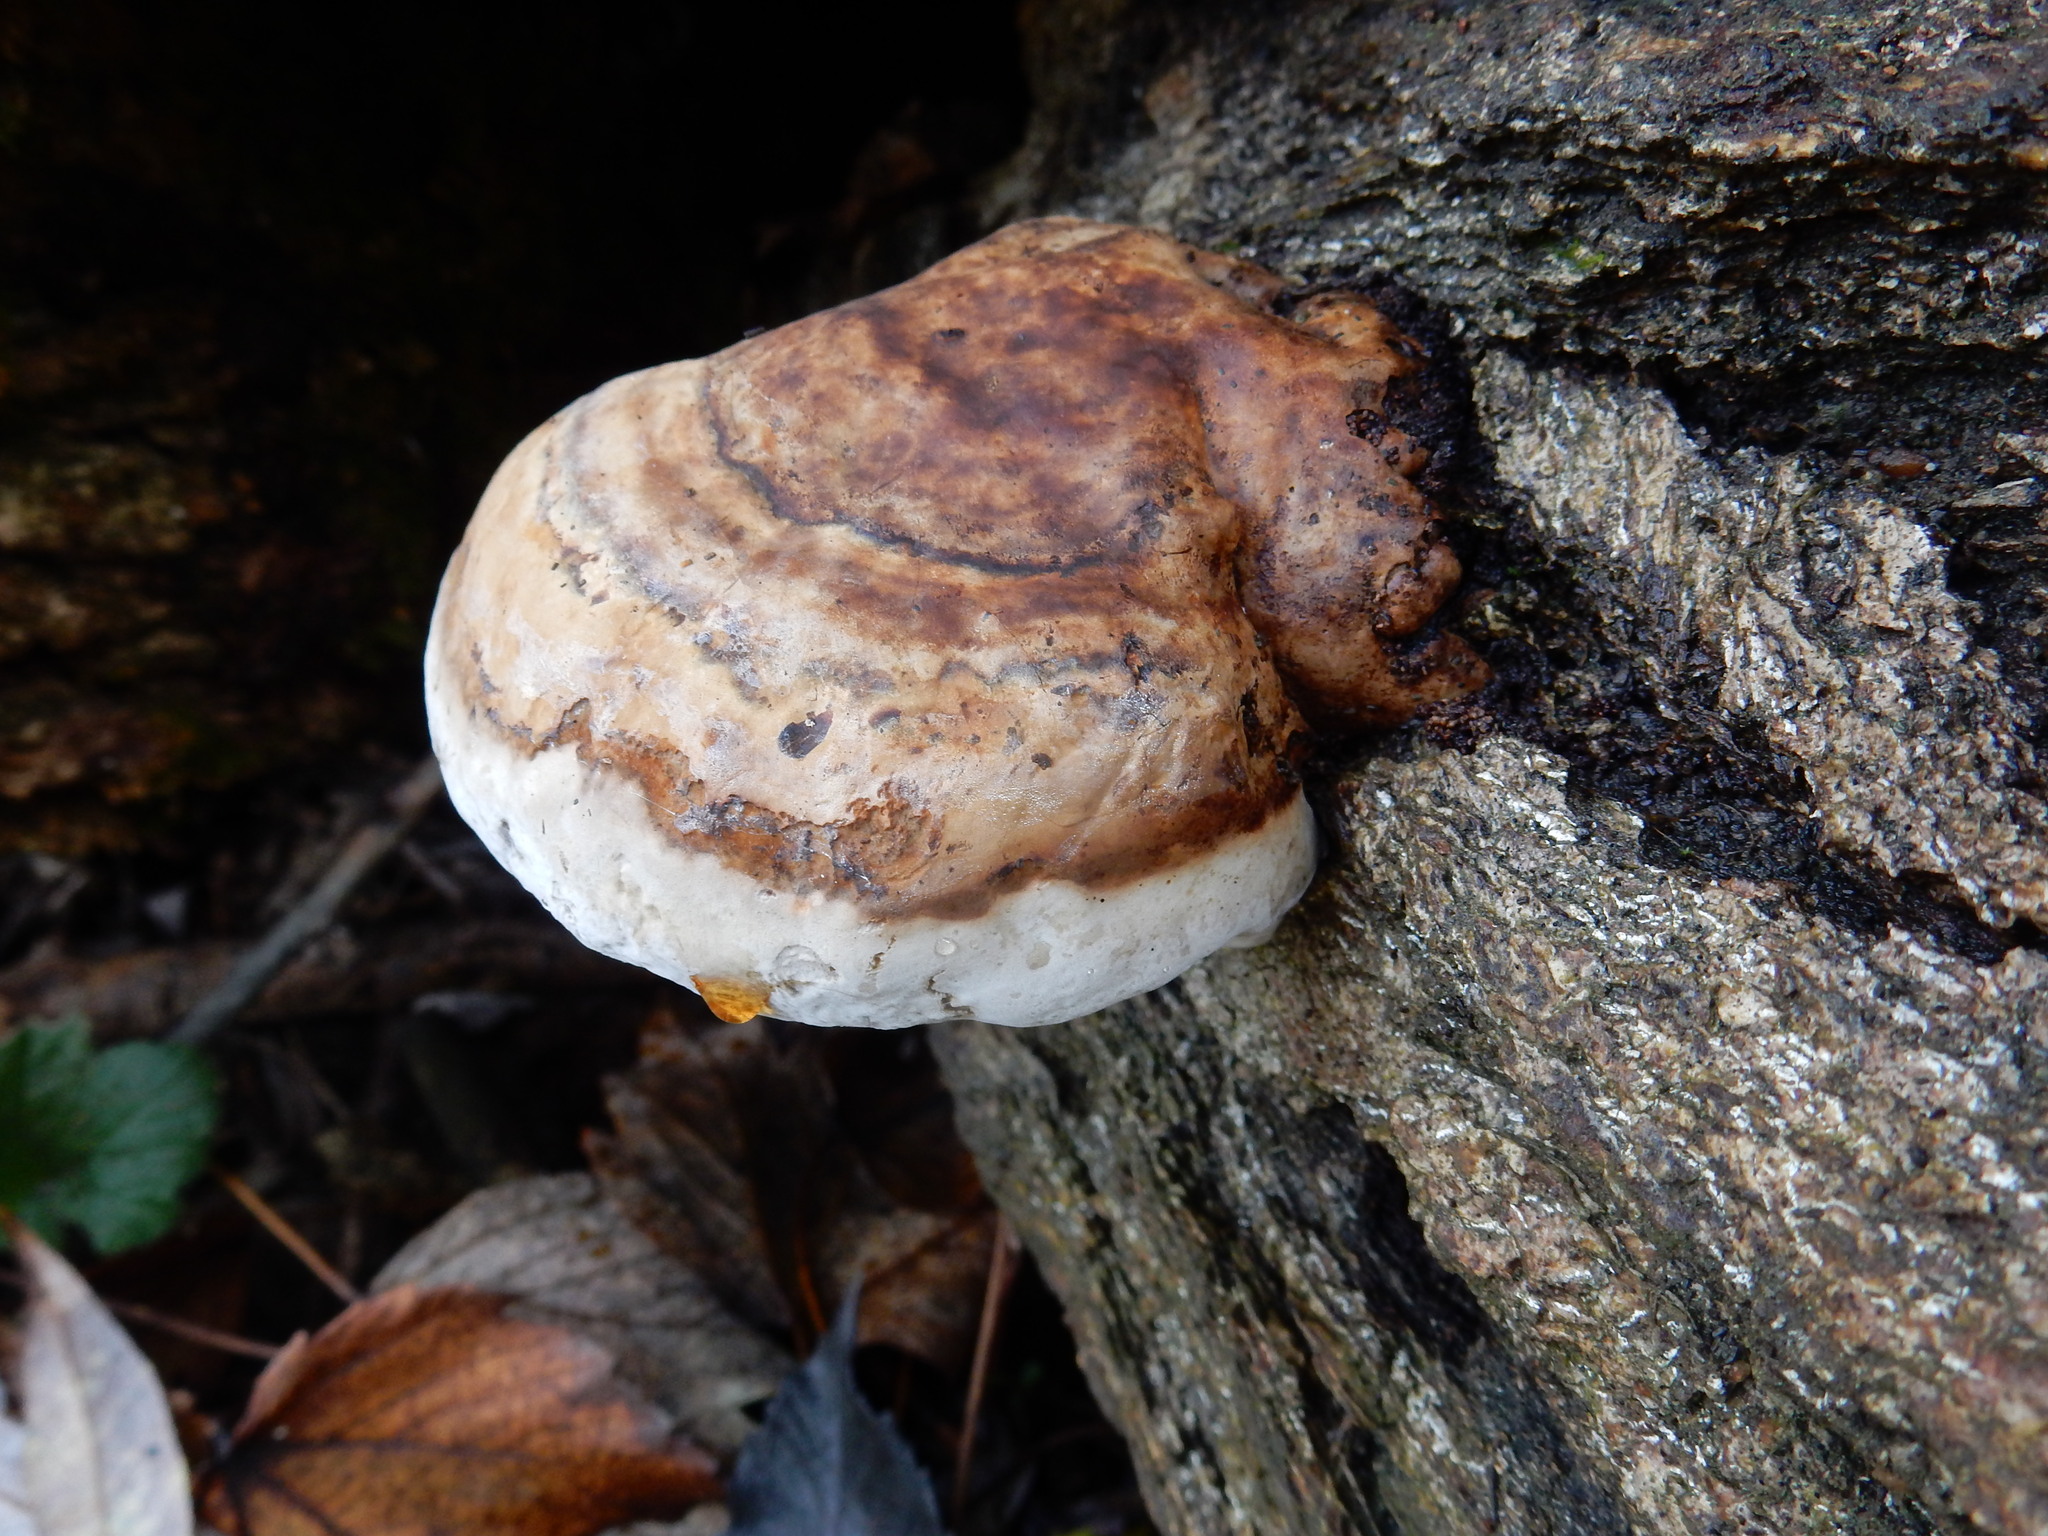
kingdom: Fungi
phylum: Basidiomycota
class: Agaricomycetes
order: Polyporales
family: Polyporaceae
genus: Fomes
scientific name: Fomes fomentarius
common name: Hoof fungus
